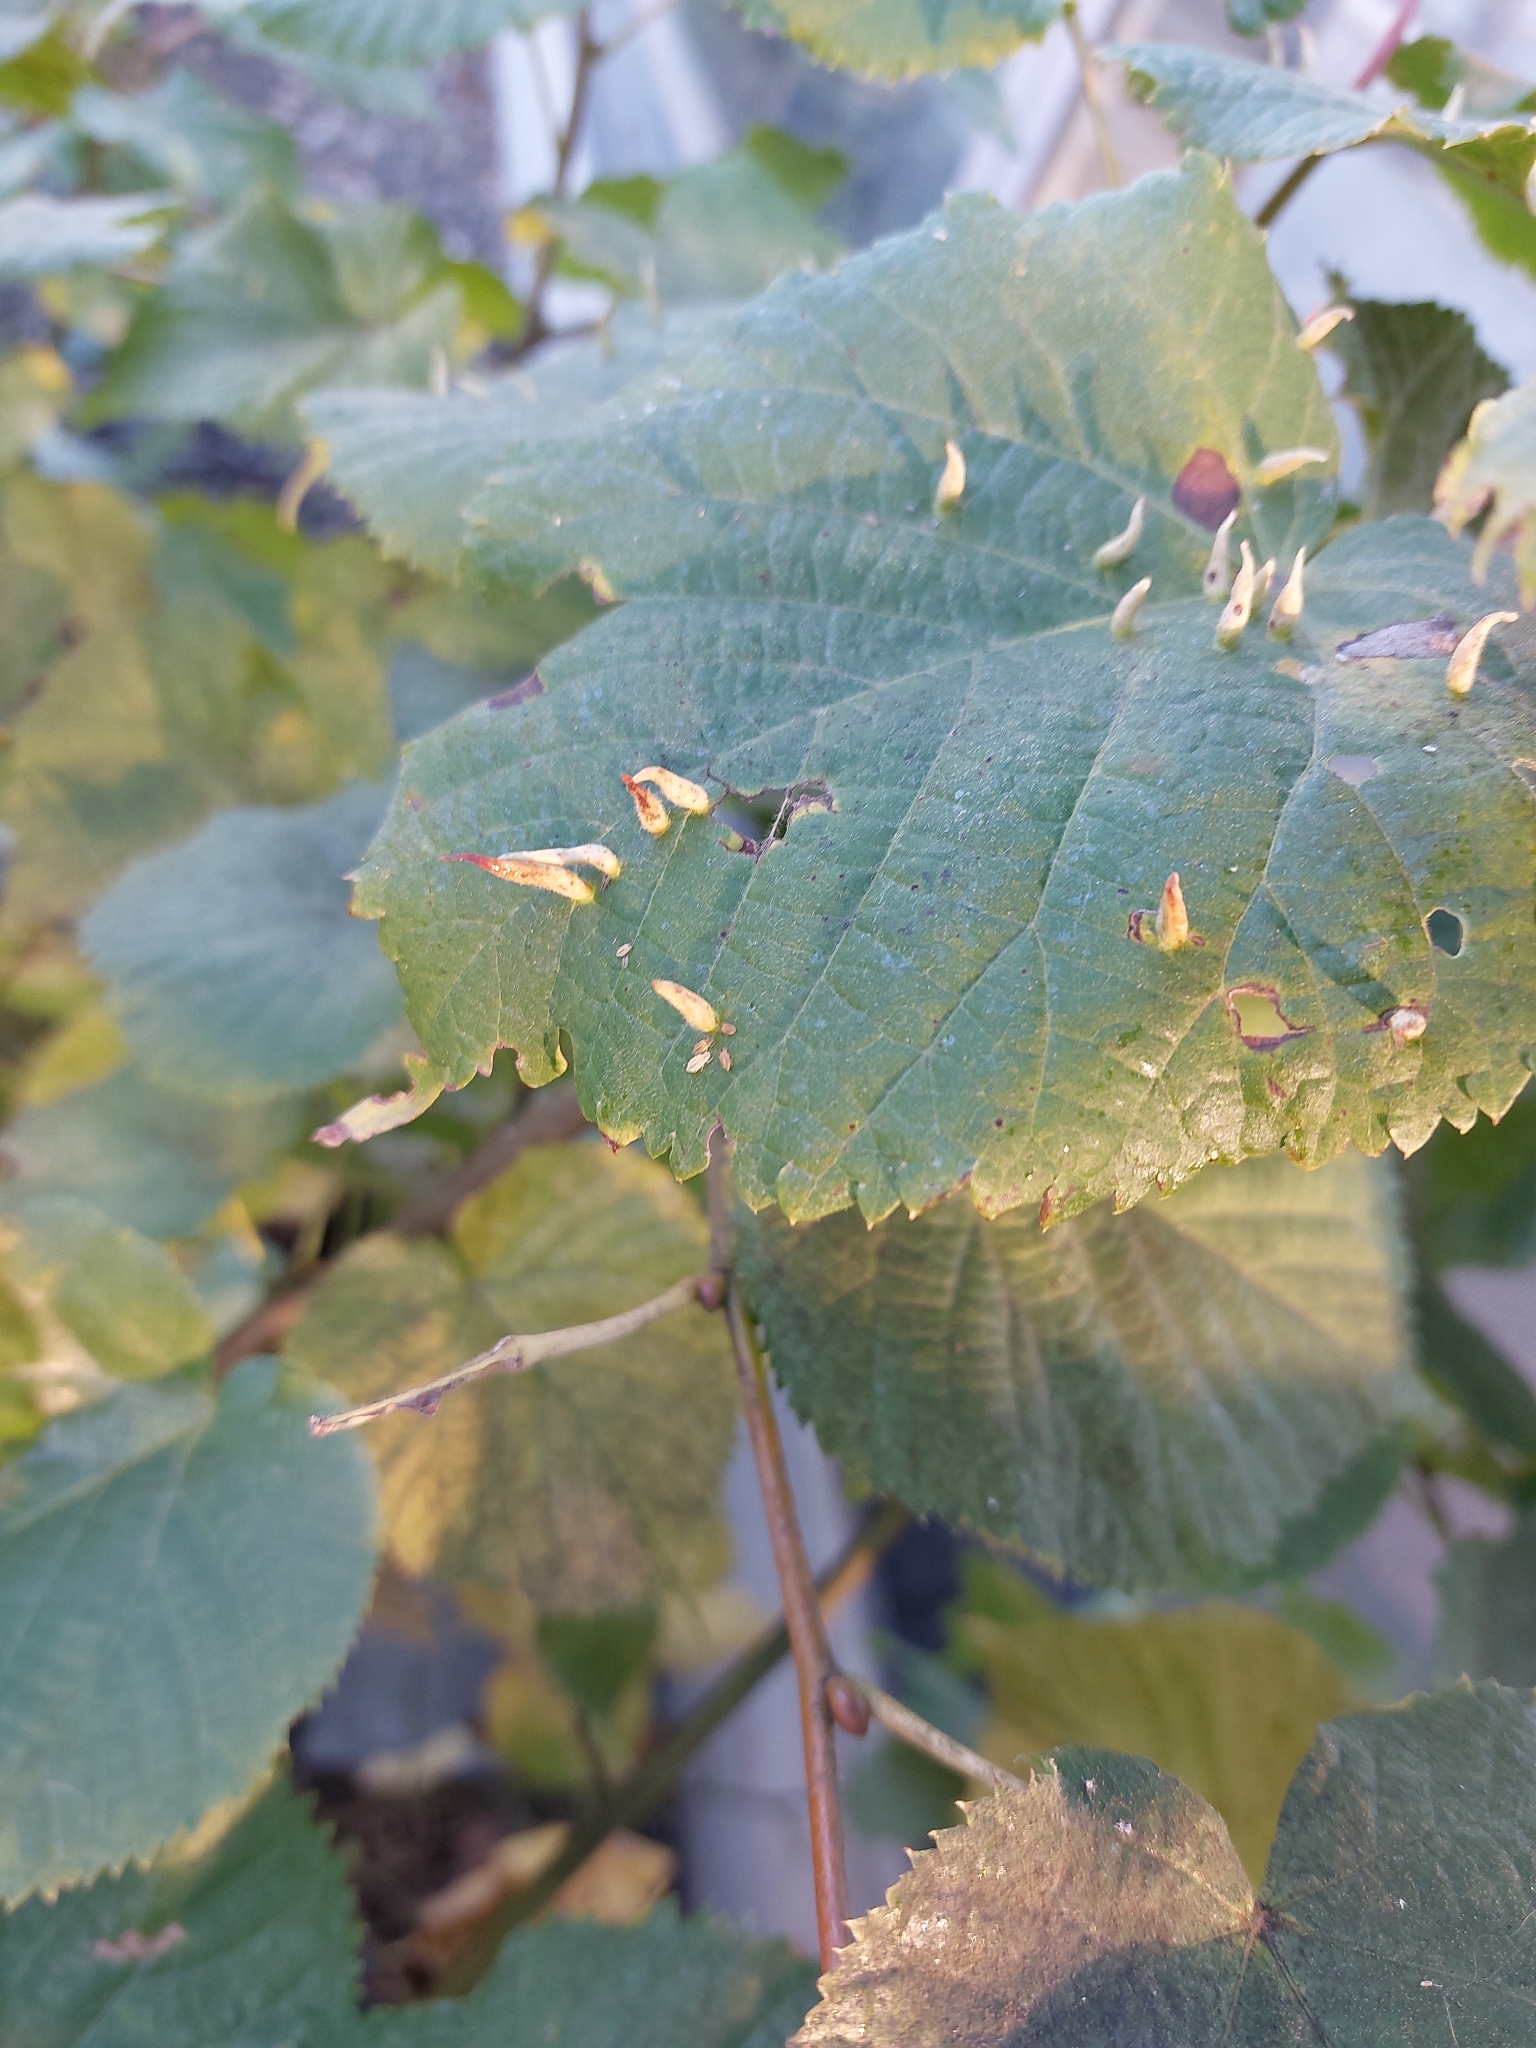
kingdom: Animalia
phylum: Arthropoda
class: Arachnida
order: Trombidiformes
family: Eriophyidae
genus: Eriophyes
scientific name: Eriophyes tiliae
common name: Red nail gall mite
